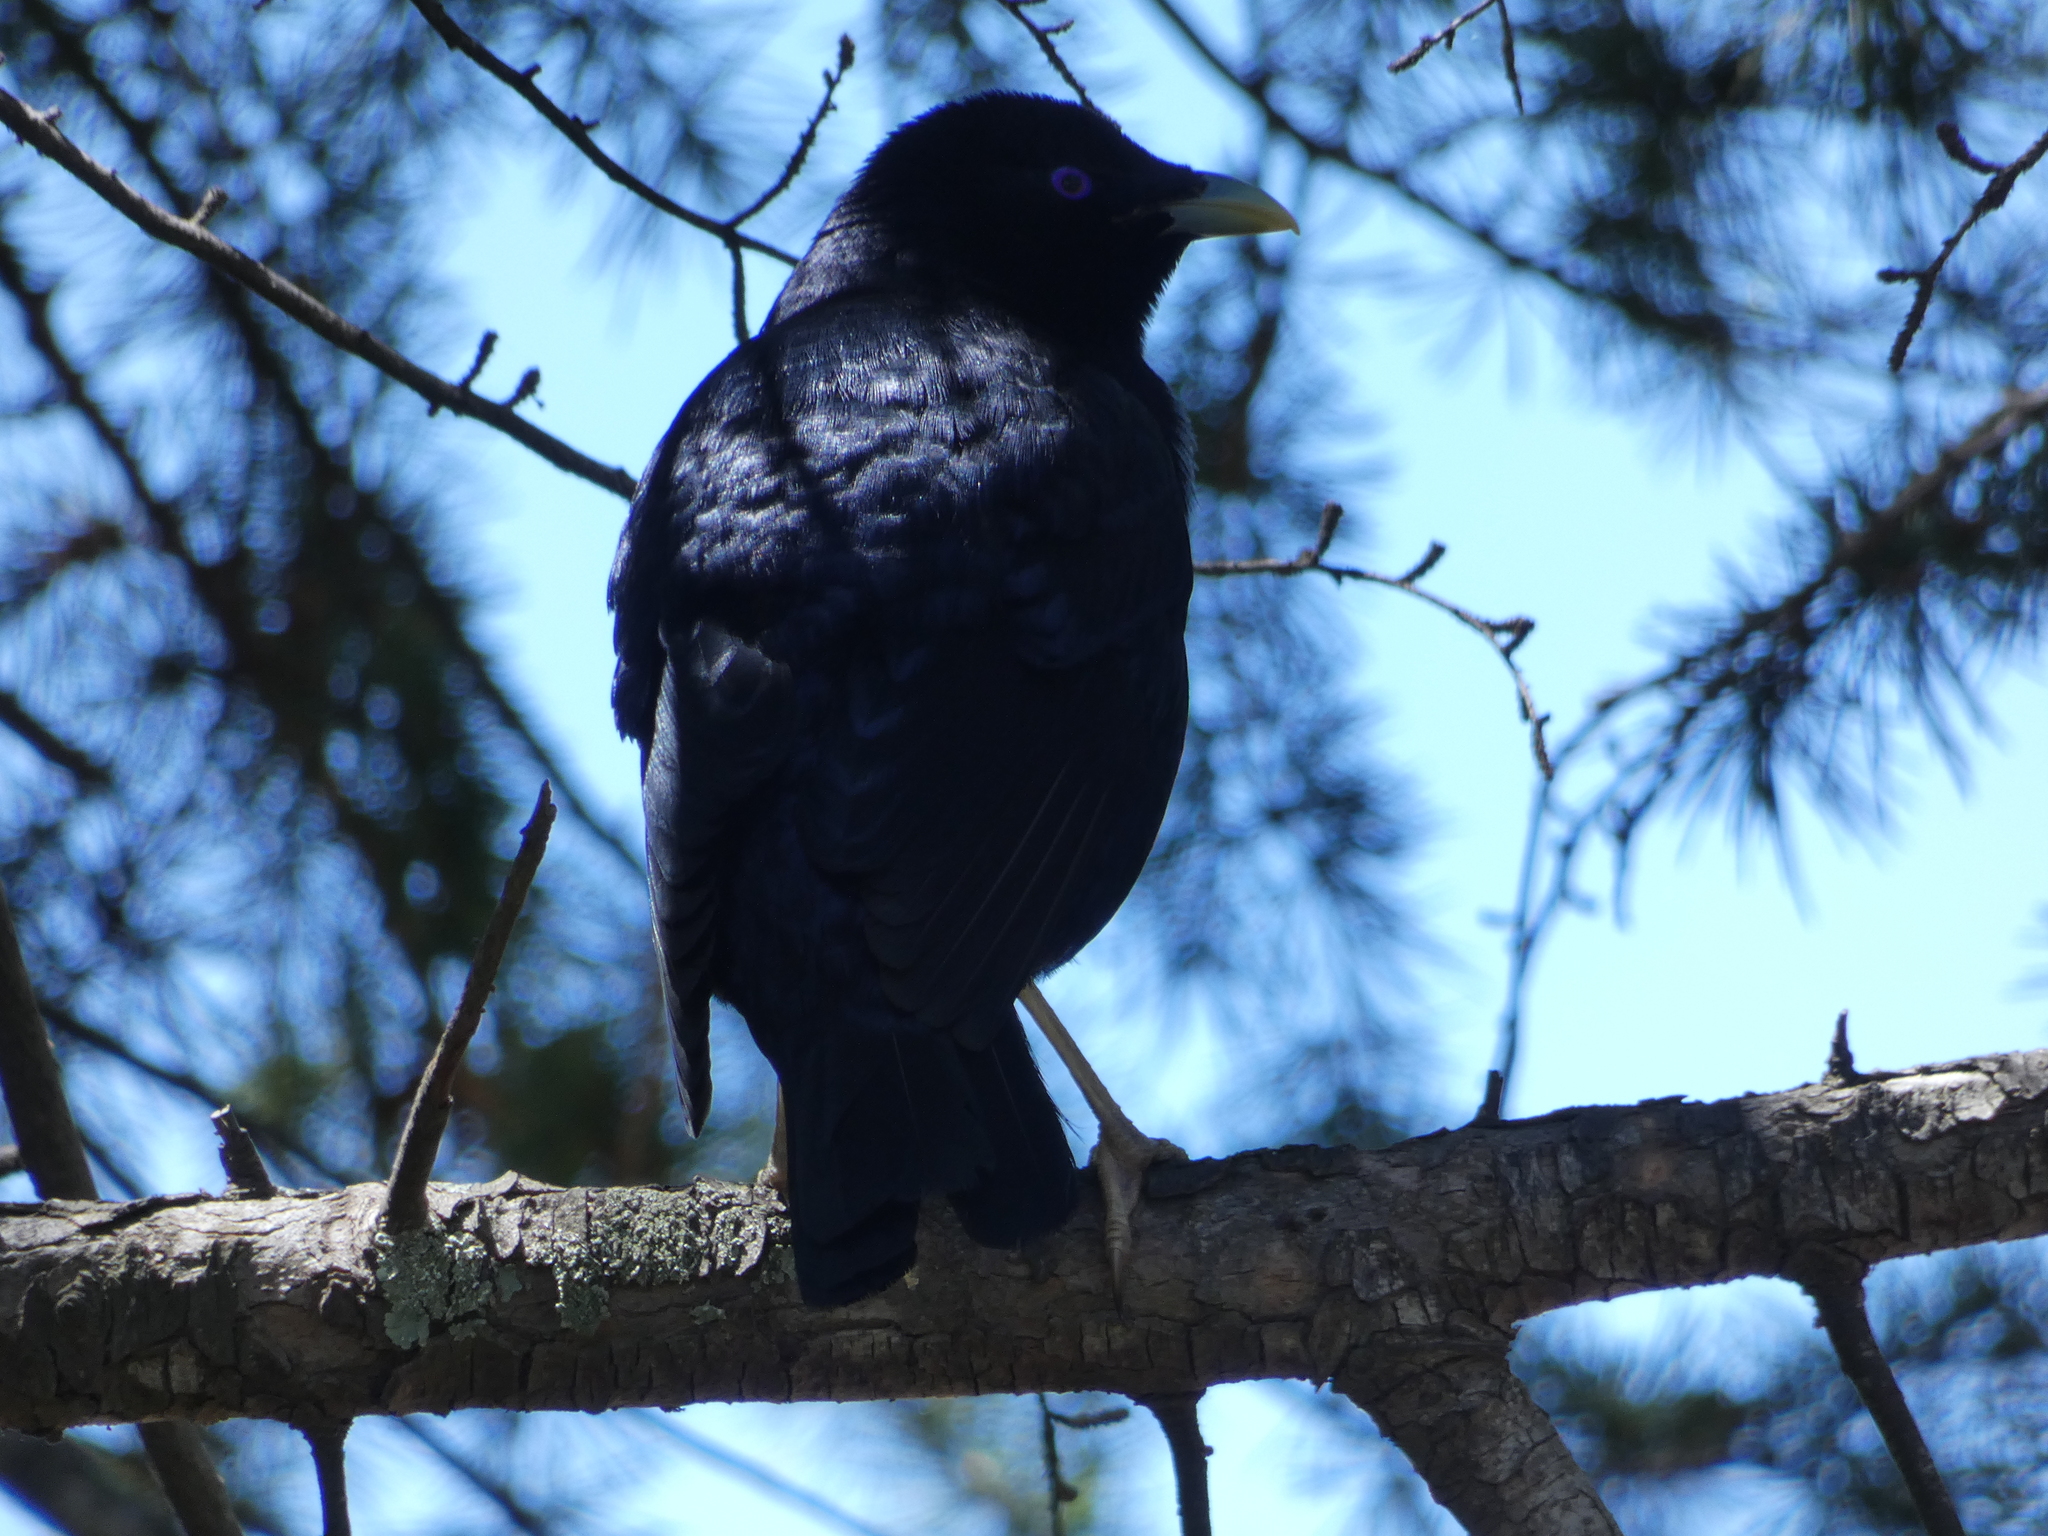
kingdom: Animalia
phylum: Chordata
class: Aves
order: Passeriformes
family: Ptilonorhynchidae
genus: Ptilonorhynchus
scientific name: Ptilonorhynchus violaceus
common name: Satin bowerbird
